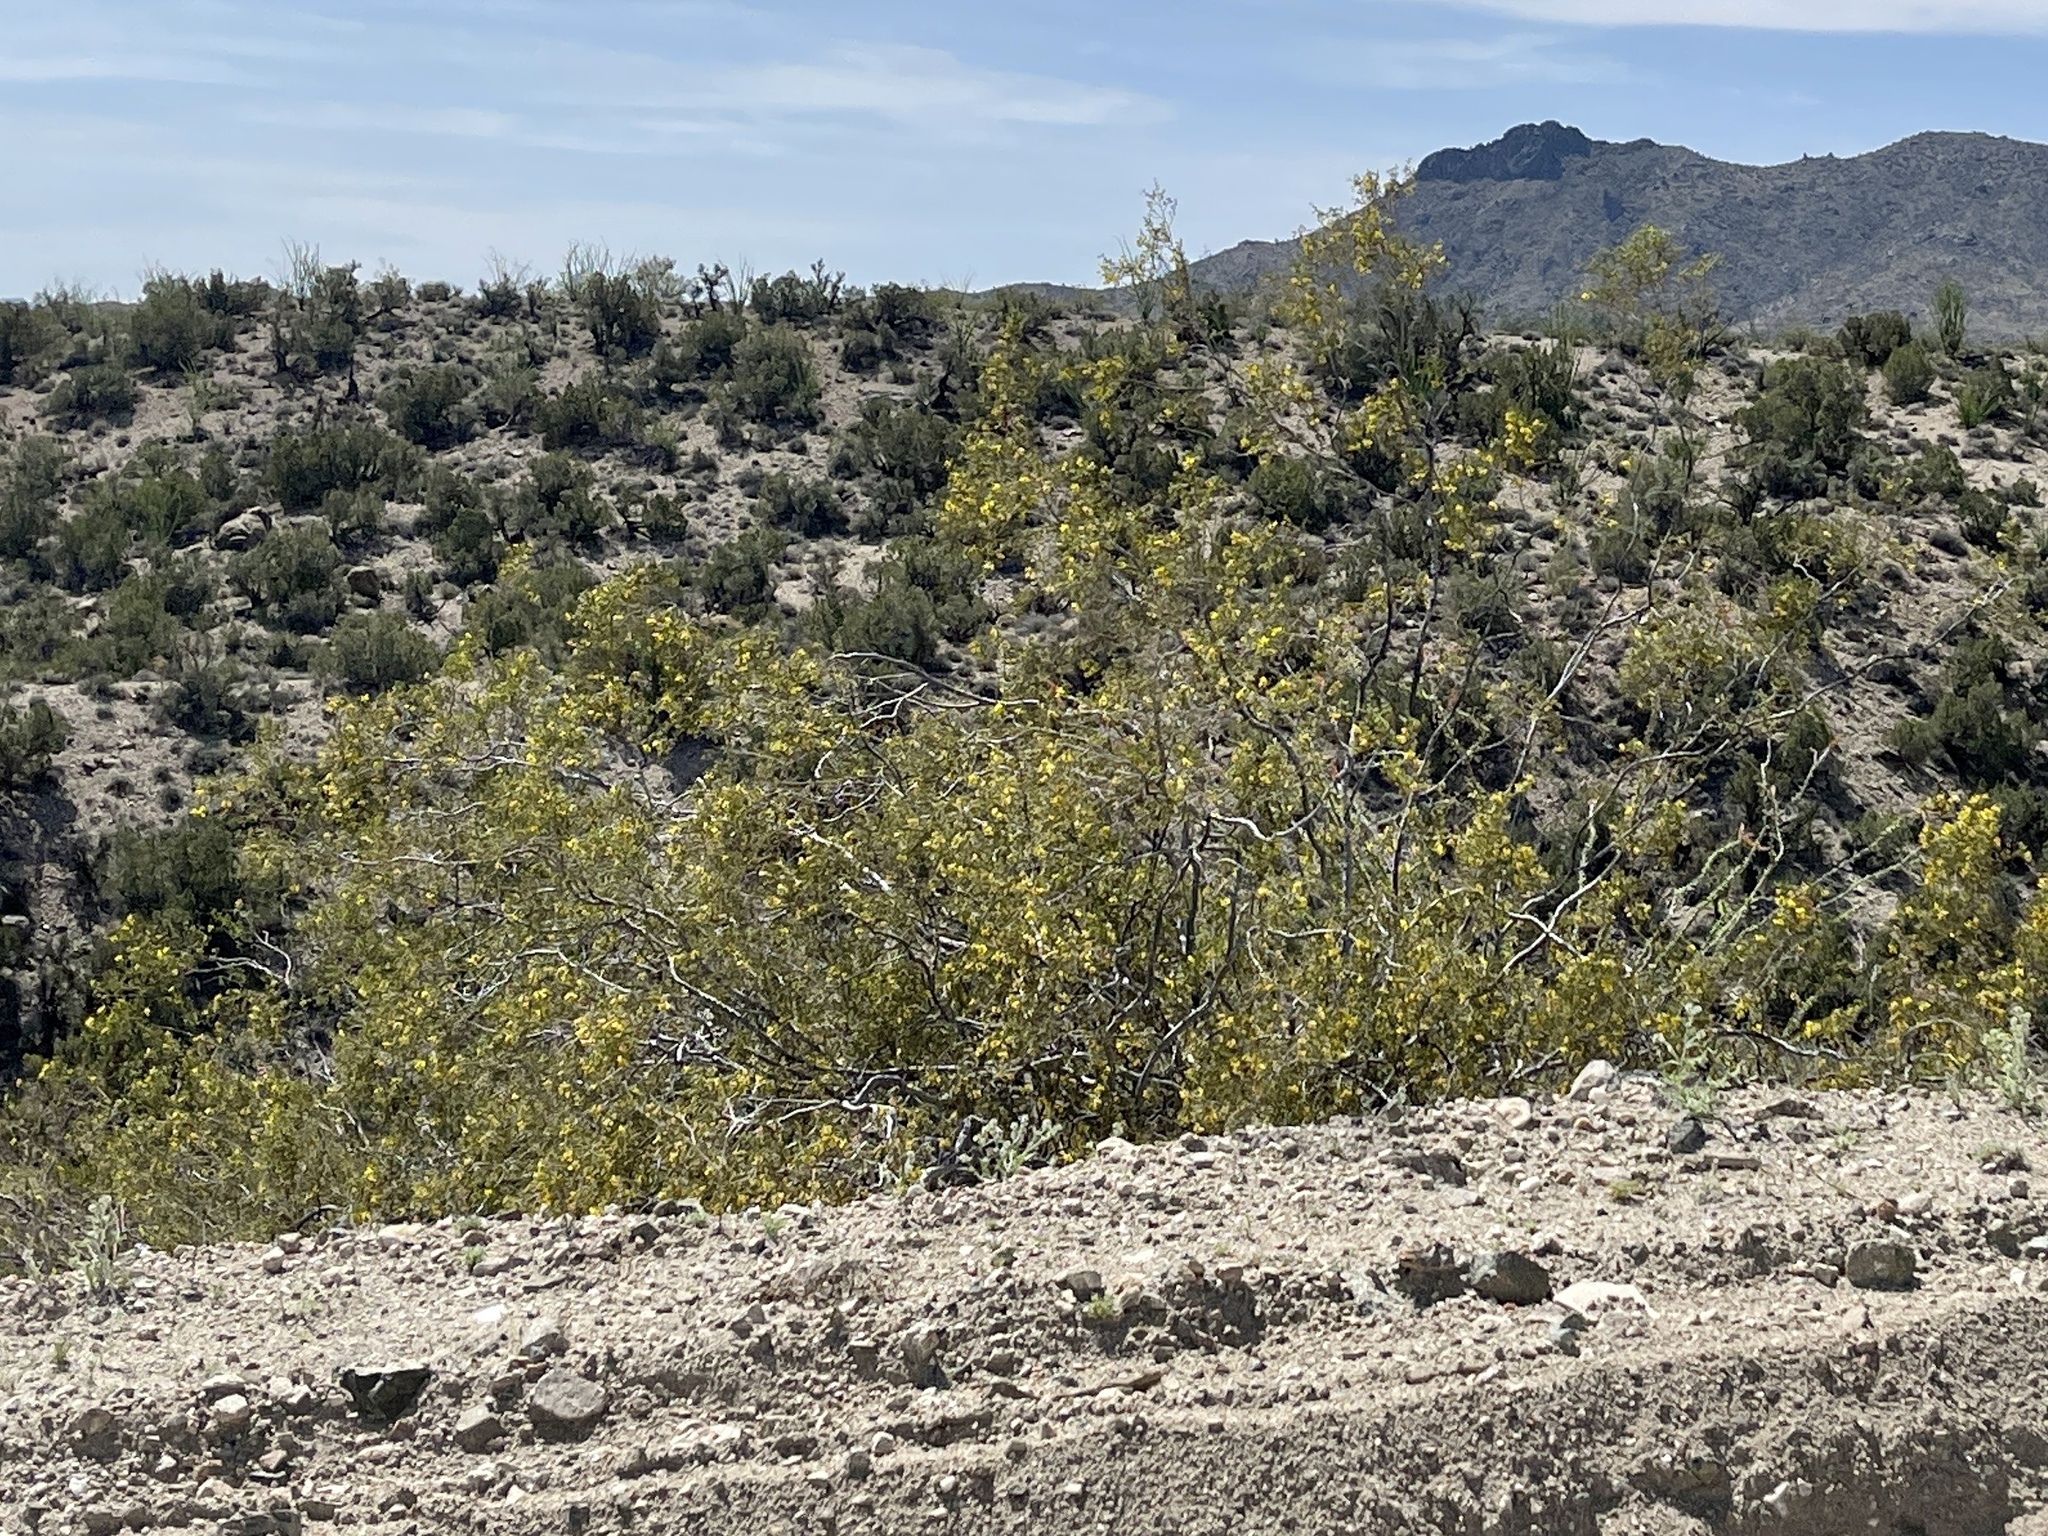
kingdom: Plantae
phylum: Tracheophyta
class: Magnoliopsida
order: Zygophyllales
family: Zygophyllaceae
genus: Larrea
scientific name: Larrea tridentata
